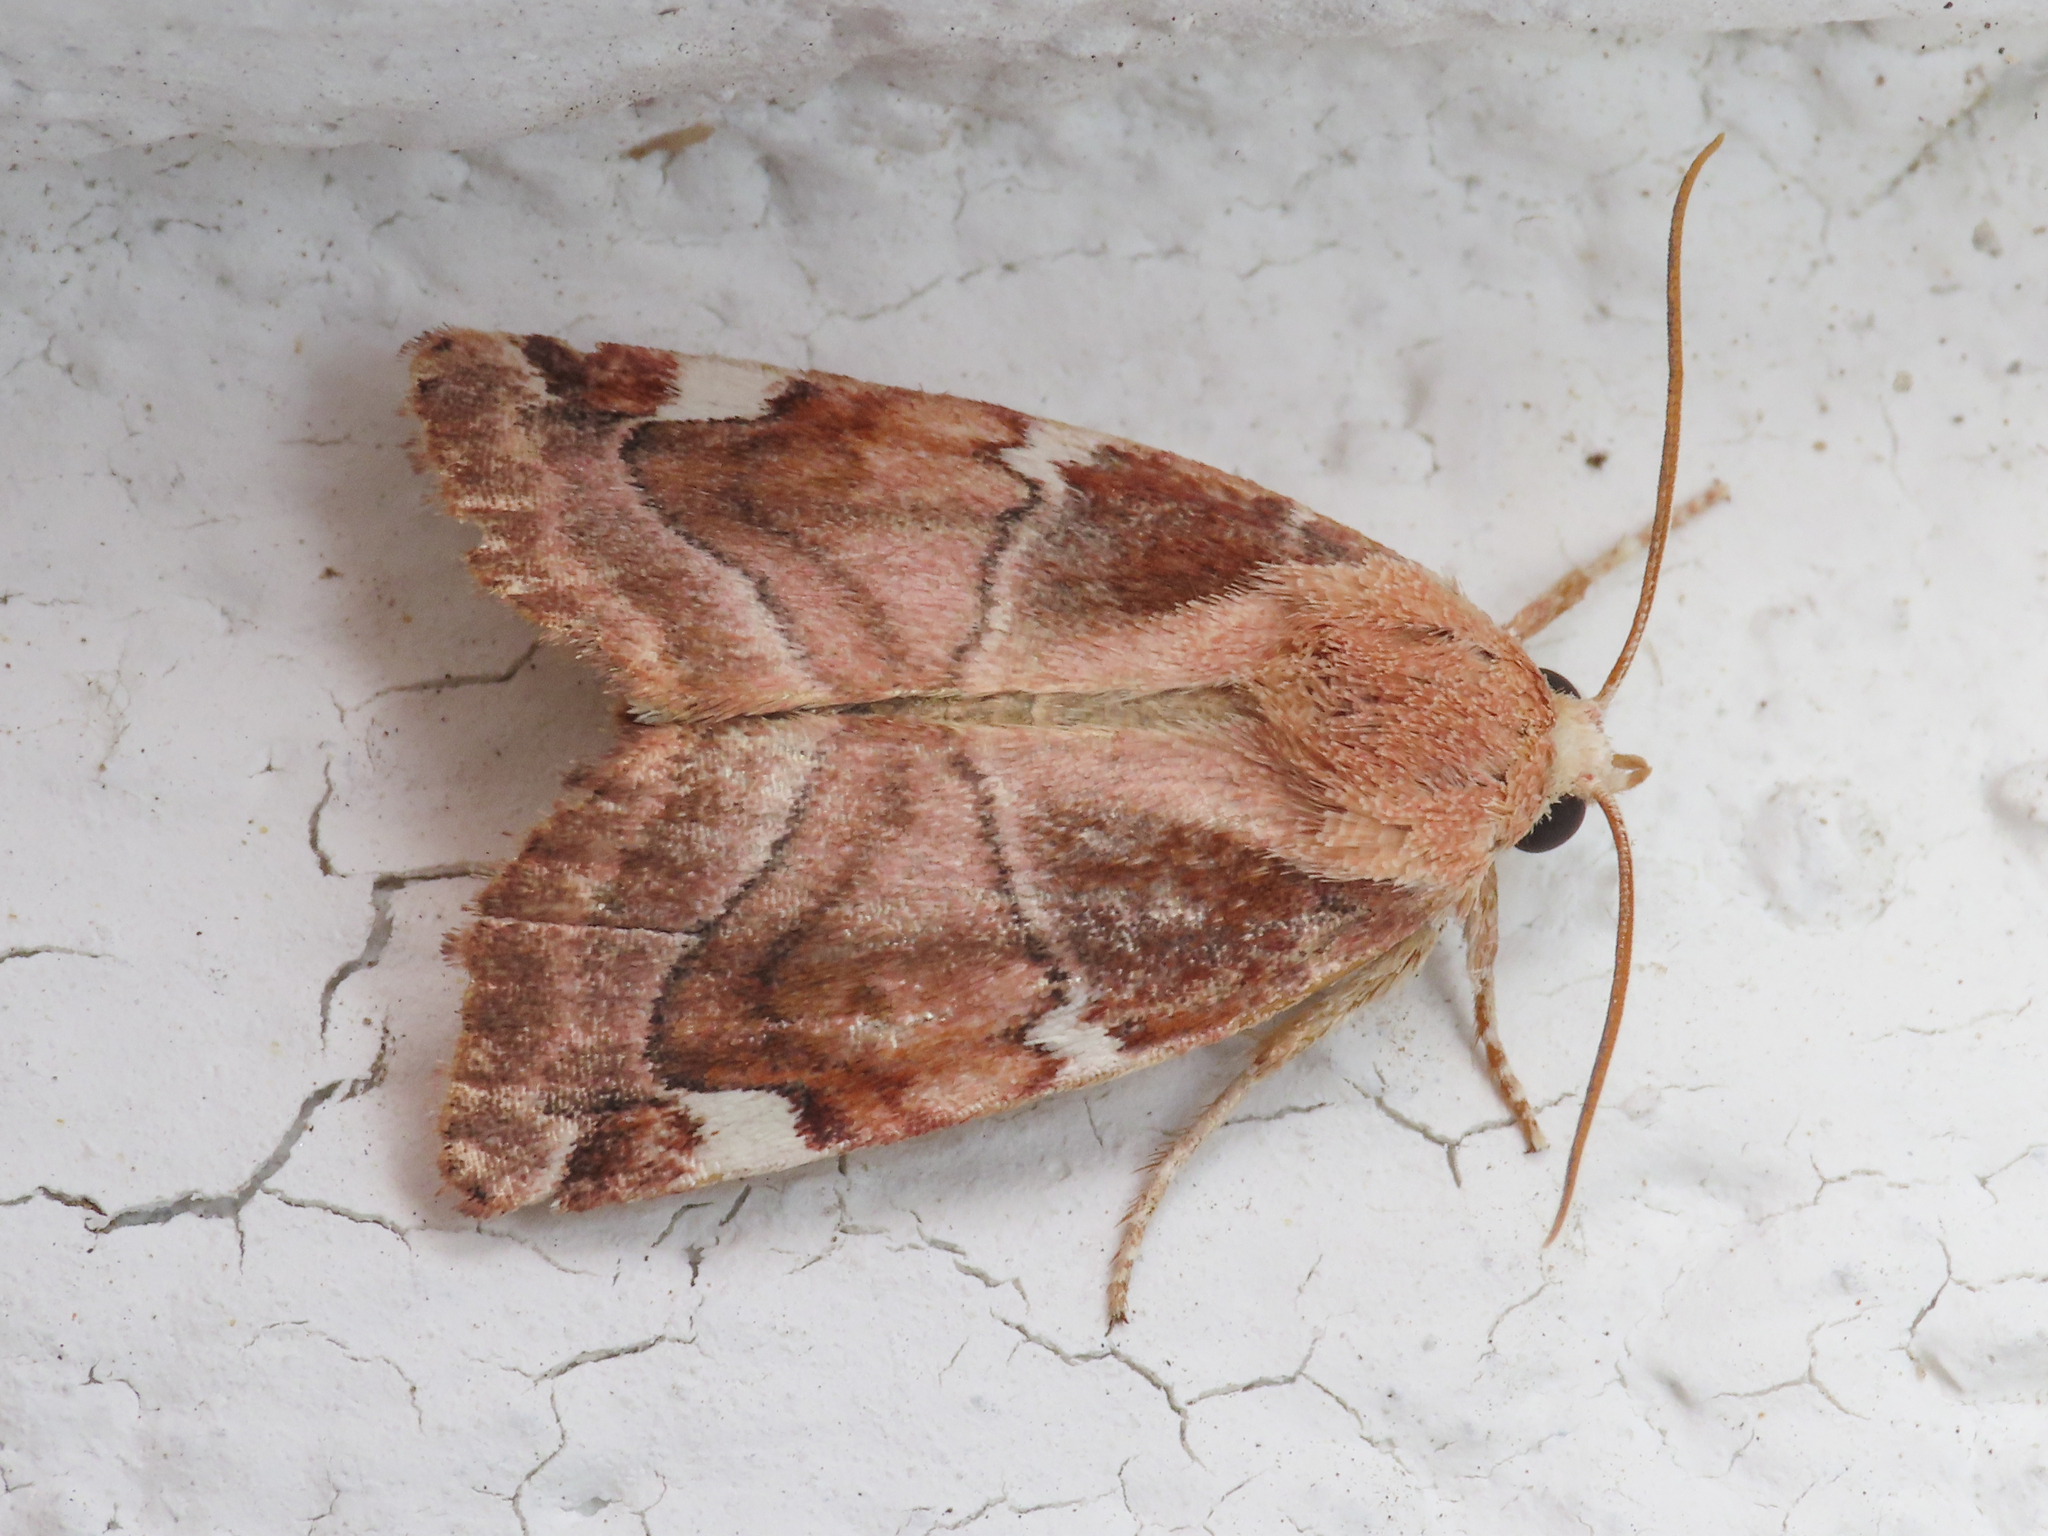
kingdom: Animalia
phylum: Arthropoda
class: Insecta
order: Lepidoptera
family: Noctuidae
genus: Cosmia
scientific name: Cosmia confinis
